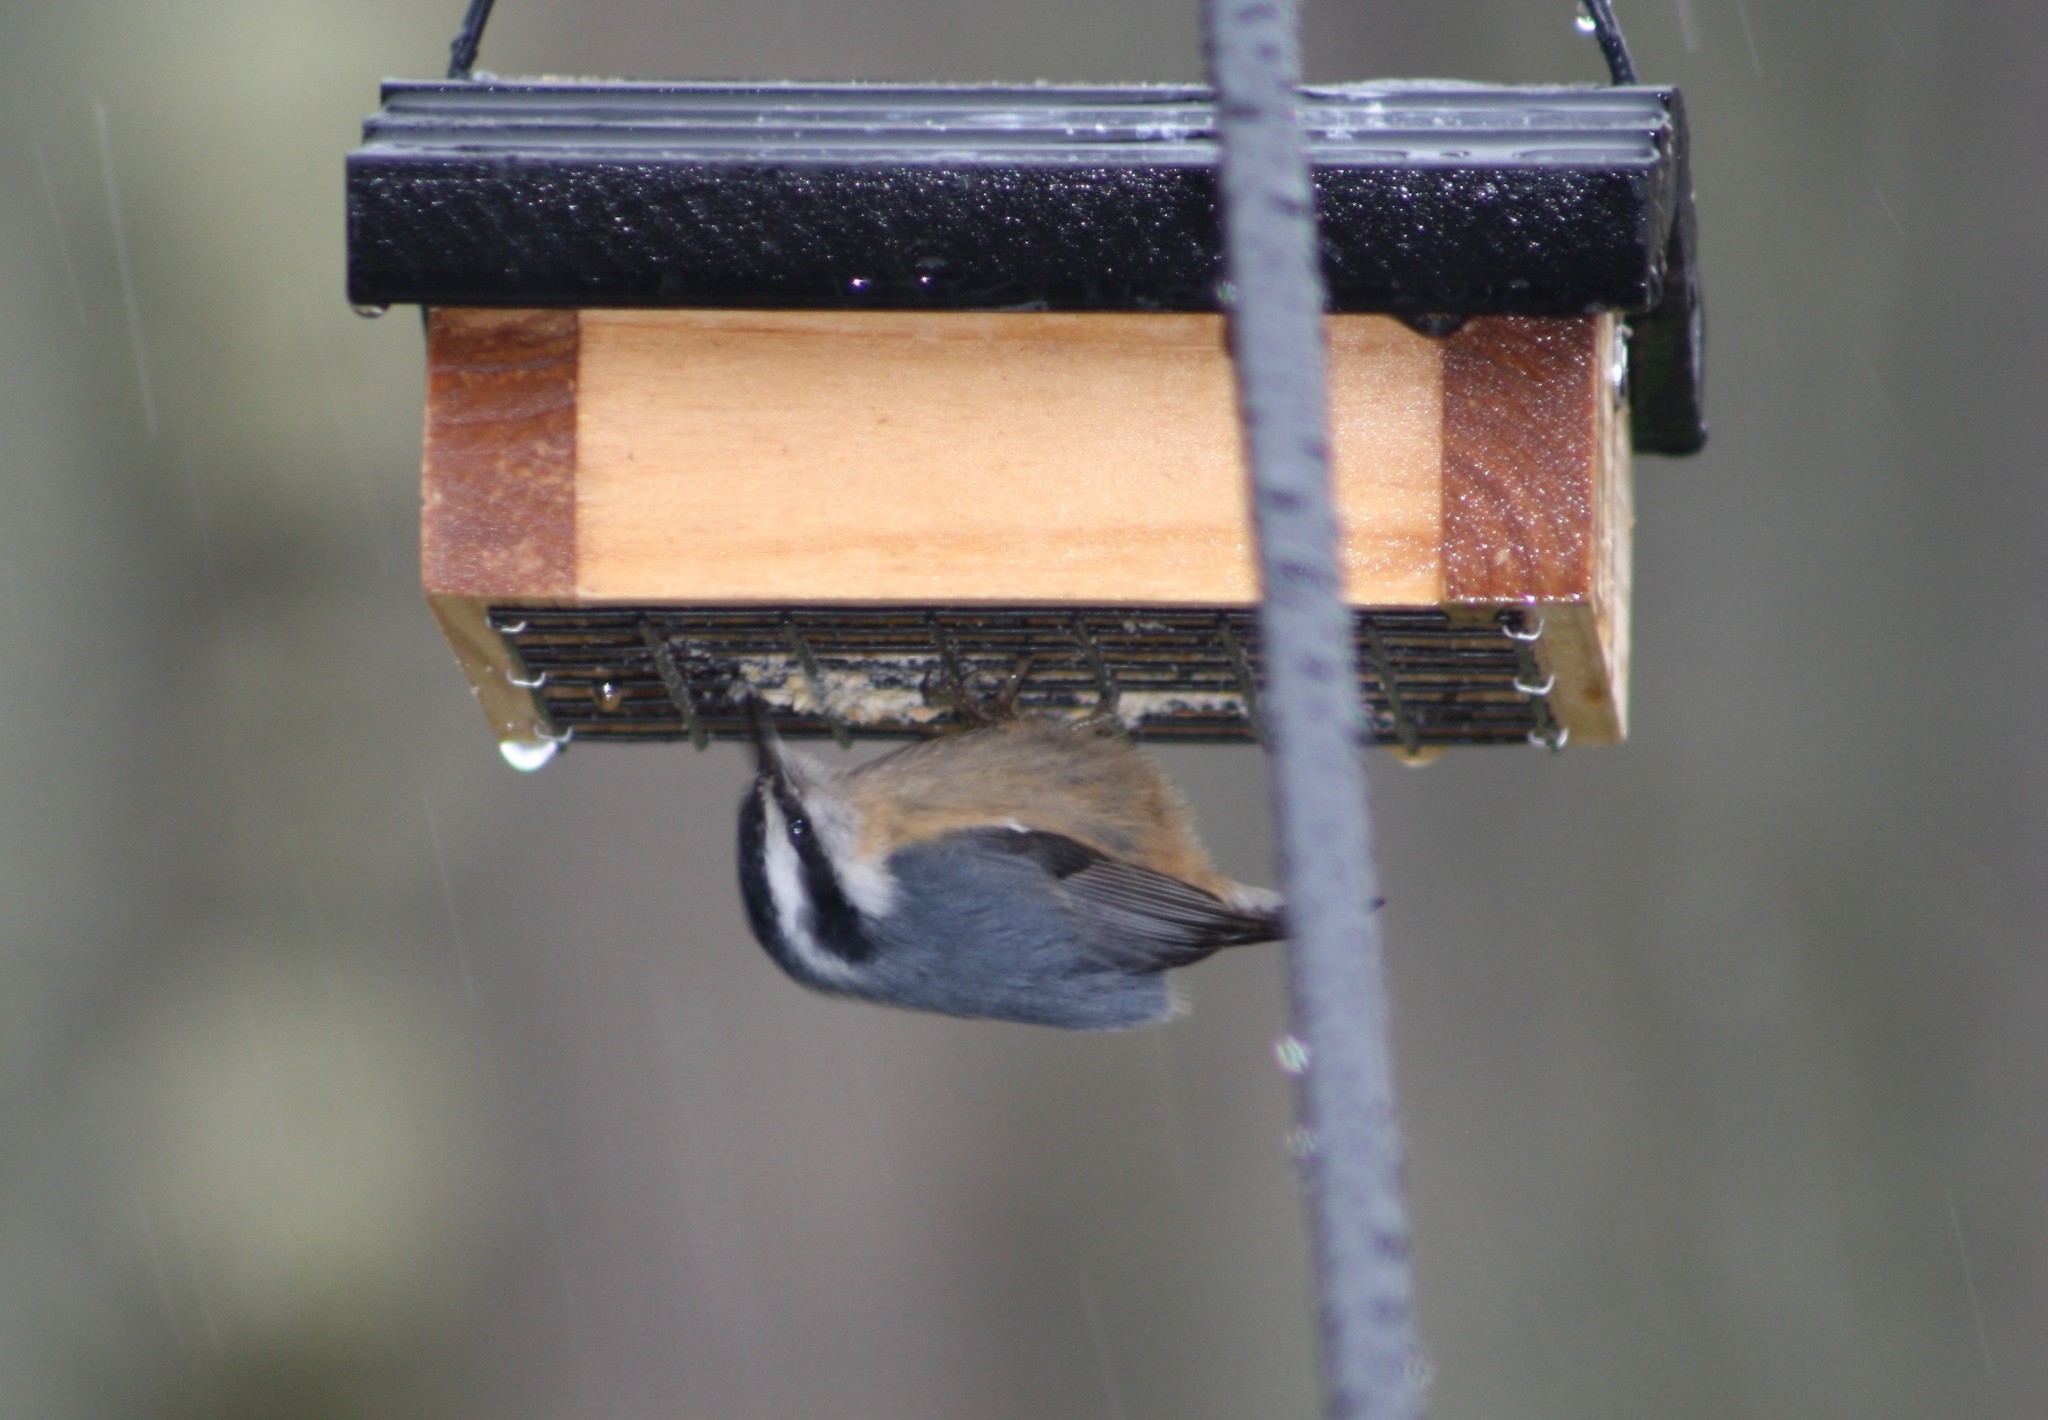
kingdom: Animalia
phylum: Chordata
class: Aves
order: Passeriformes
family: Sittidae
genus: Sitta
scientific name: Sitta canadensis
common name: Red-breasted nuthatch
